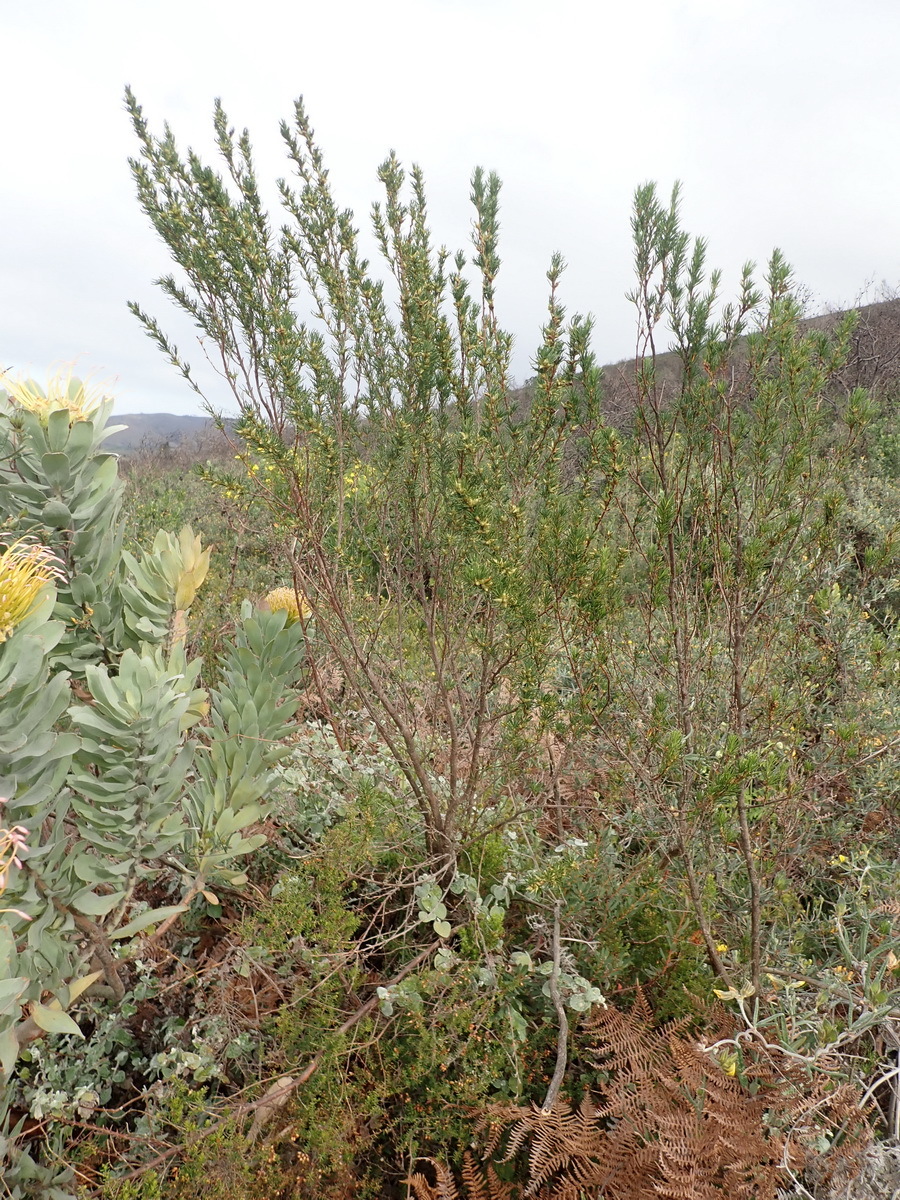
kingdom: Plantae
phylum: Tracheophyta
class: Magnoliopsida
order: Rosales
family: Rosaceae
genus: Cliffortia
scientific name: Cliffortia burchellii
